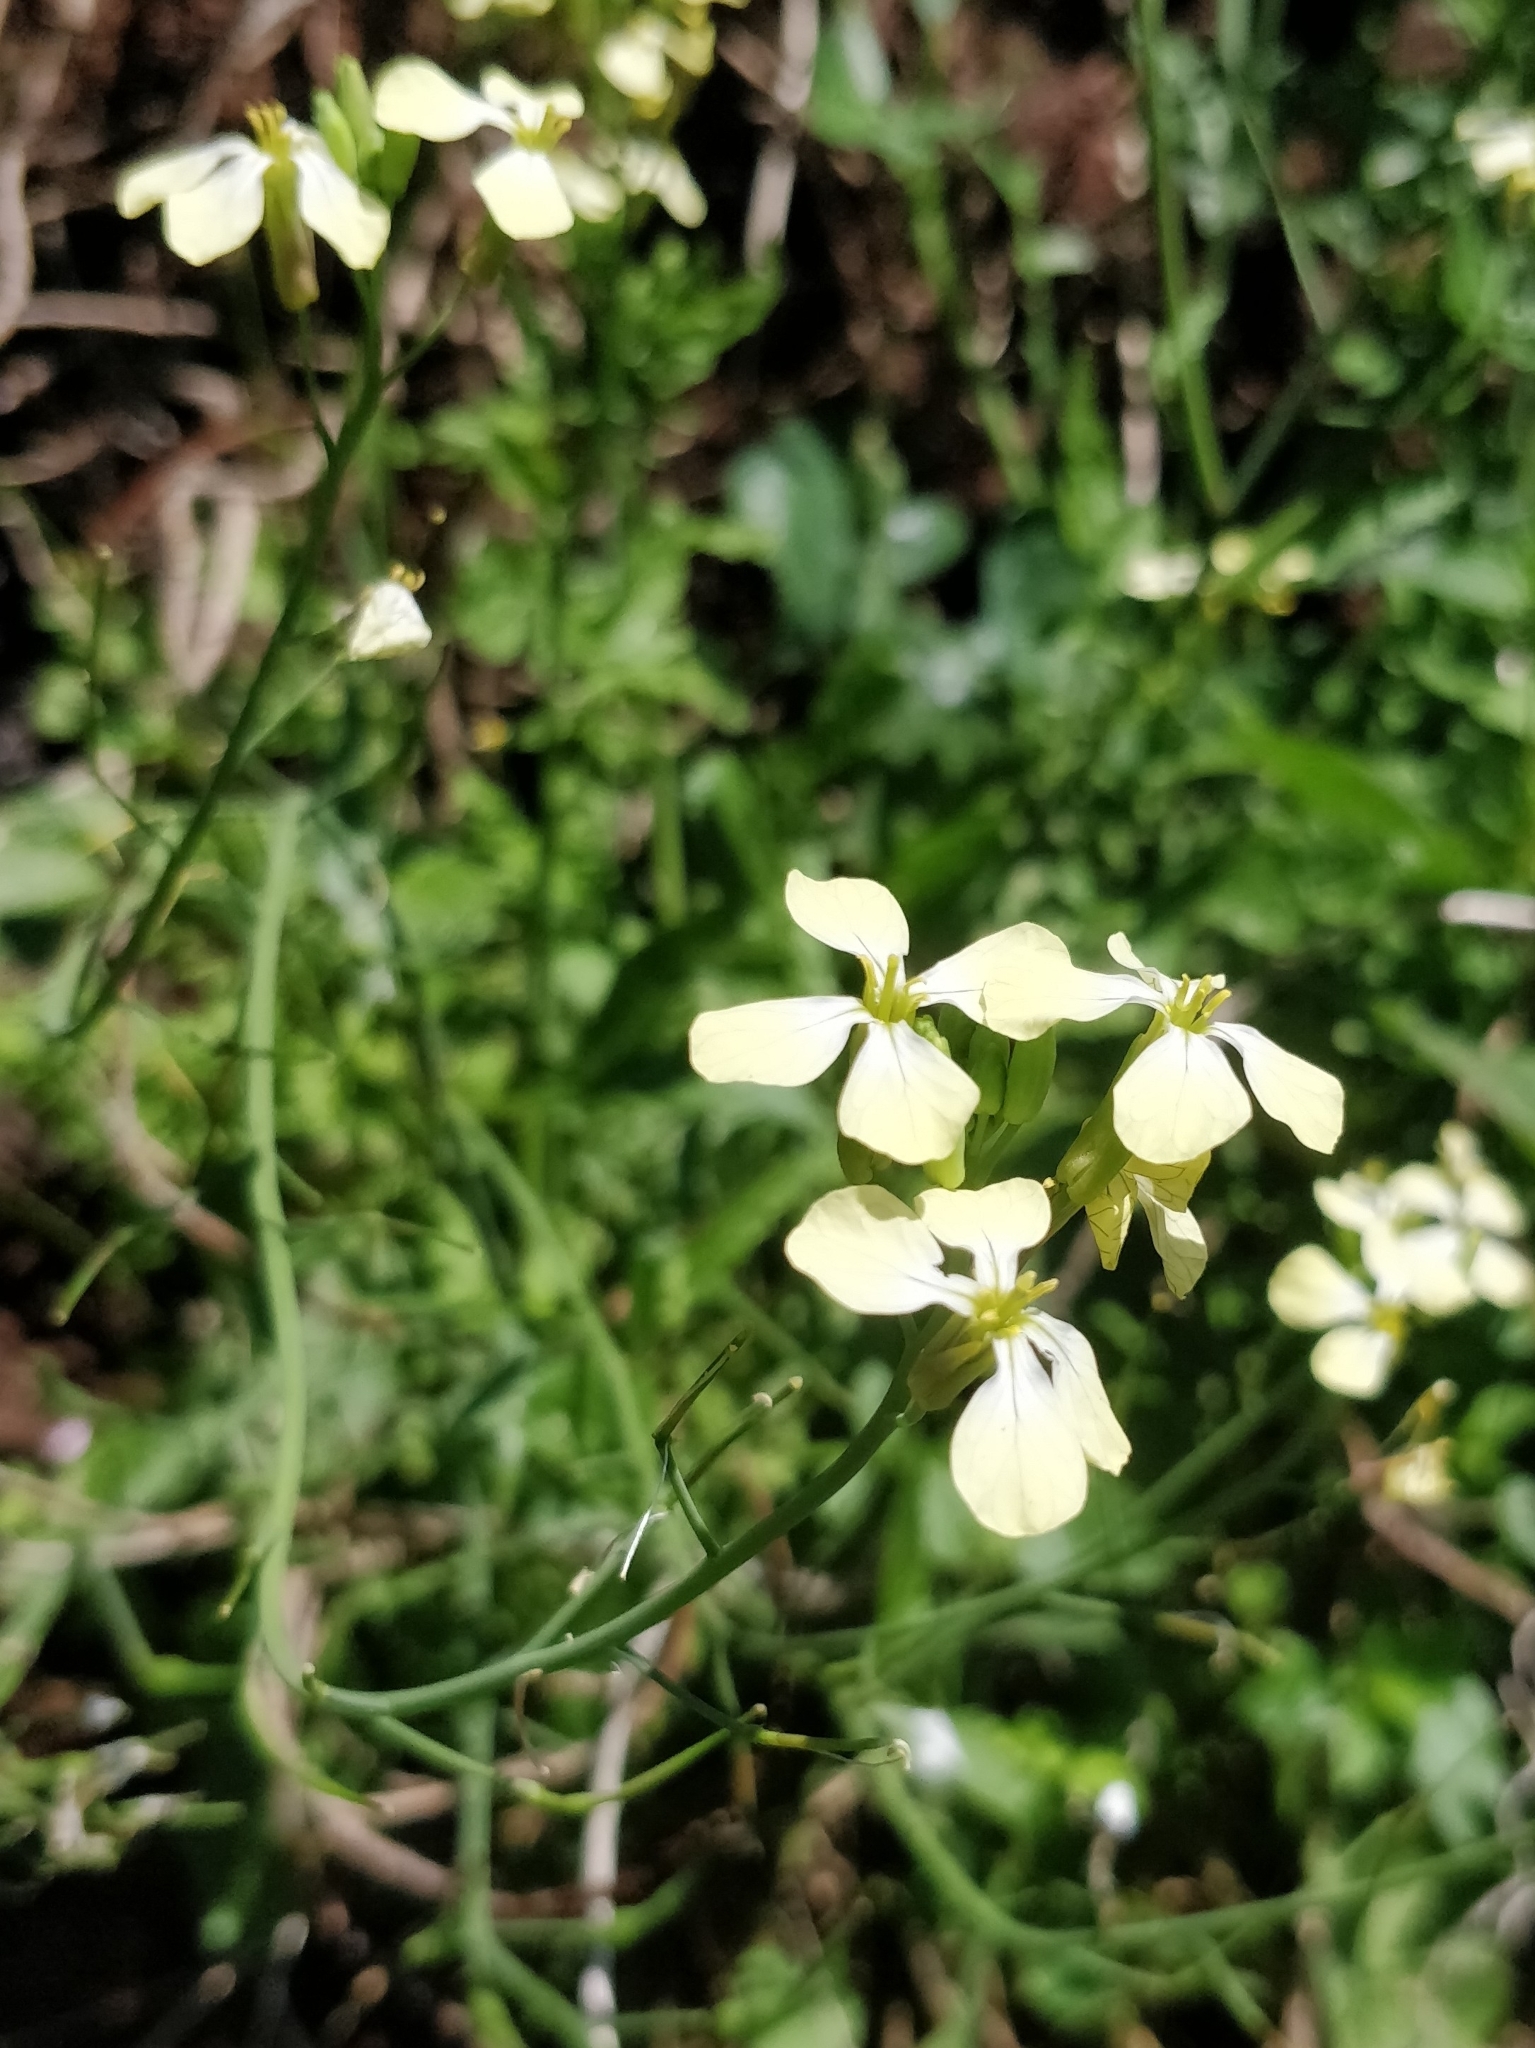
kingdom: Plantae
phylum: Tracheophyta
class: Magnoliopsida
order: Brassicales
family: Brassicaceae
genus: Raphanus
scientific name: Raphanus raphanistrum
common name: Wild radish
